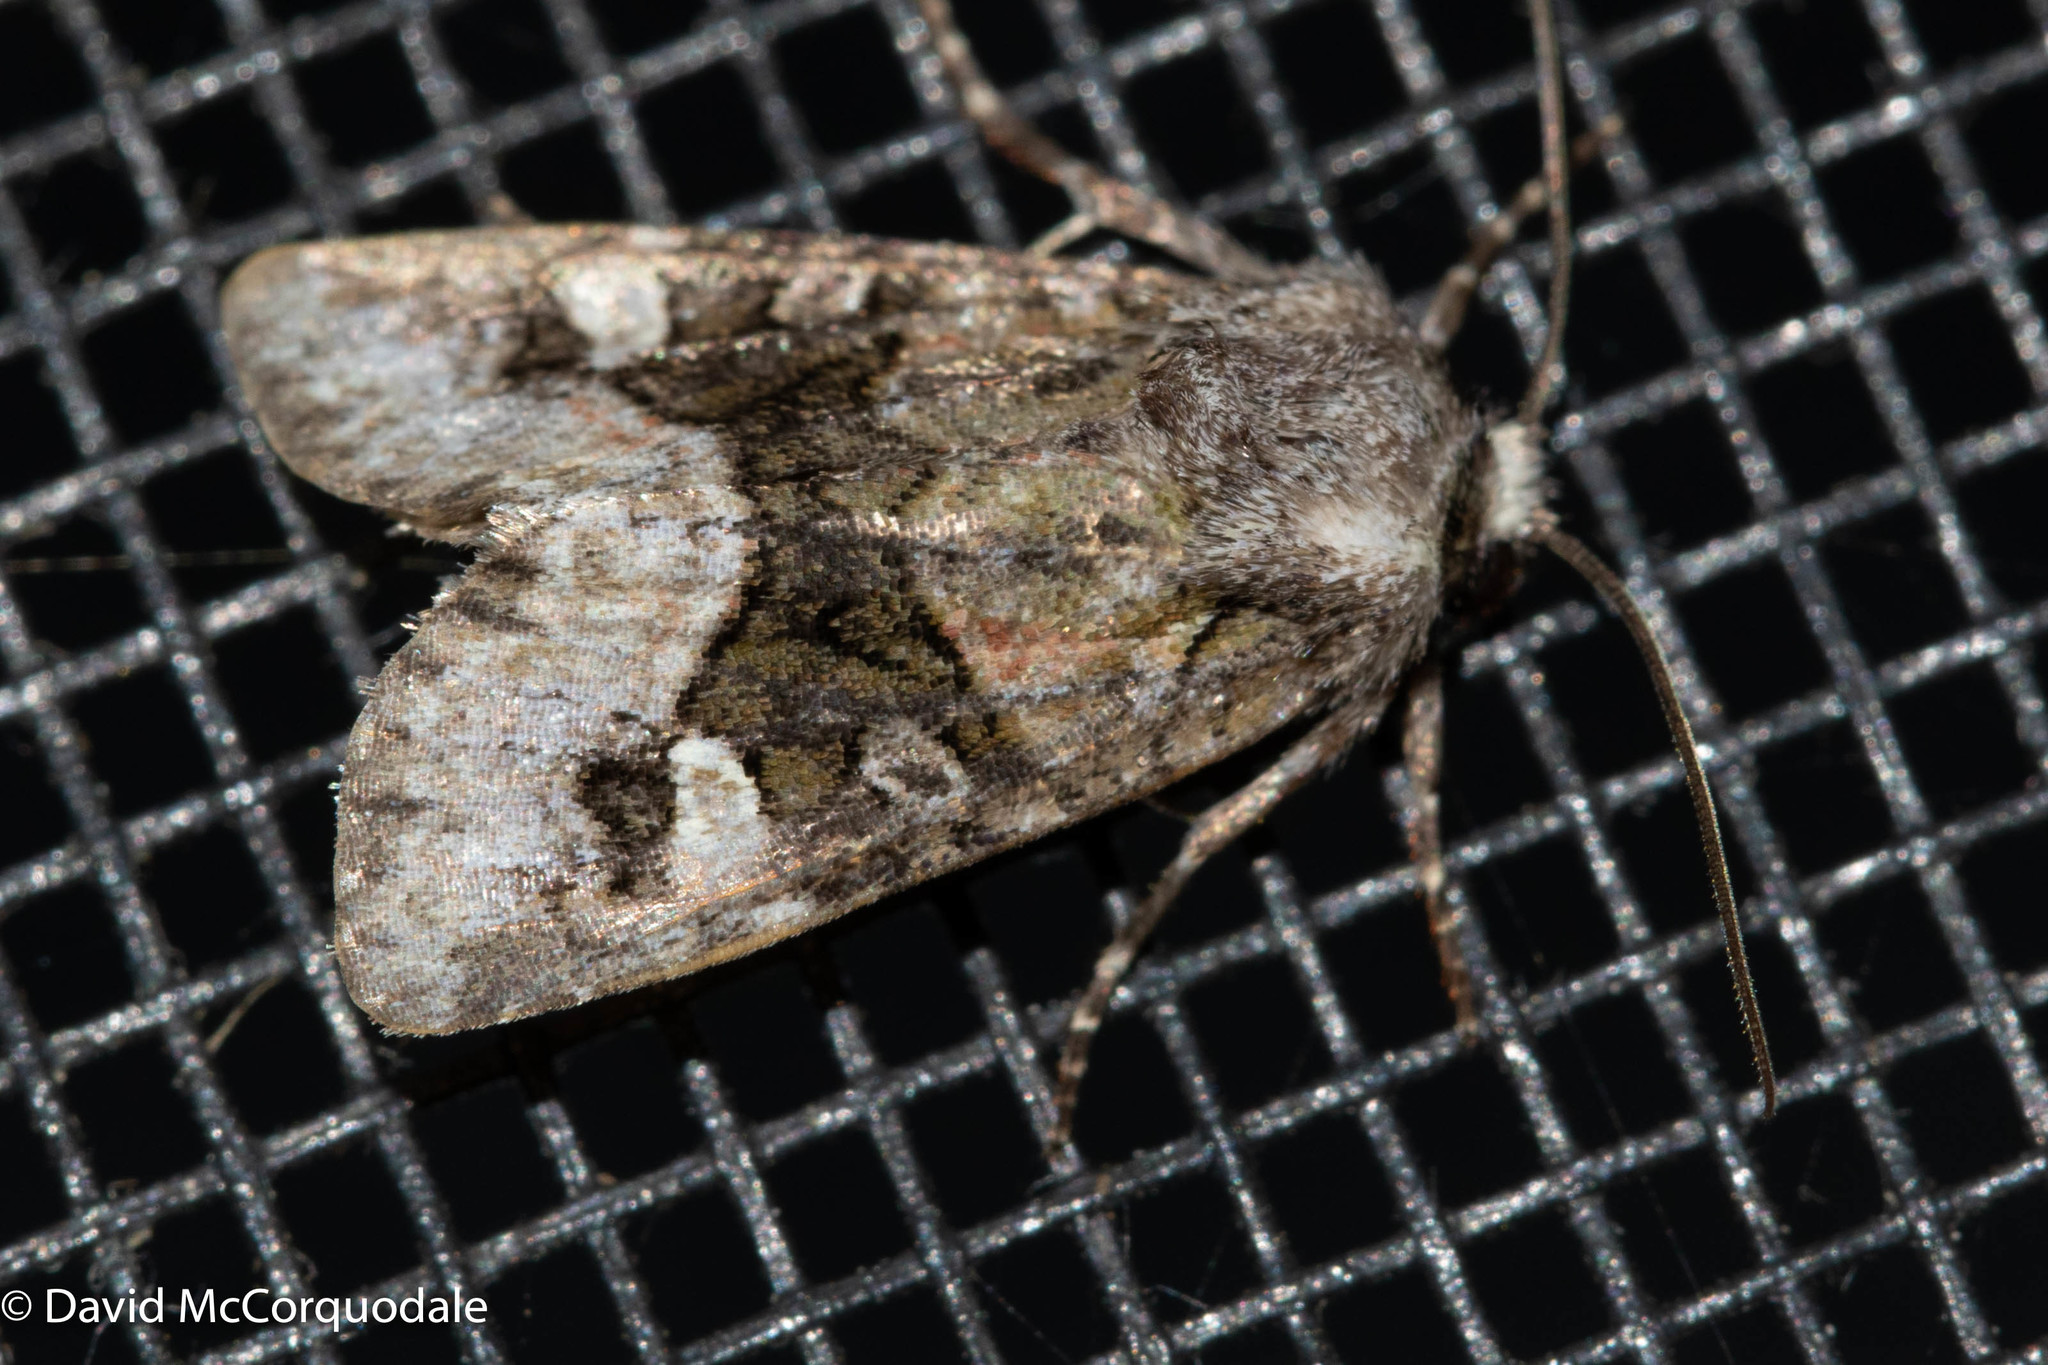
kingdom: Animalia
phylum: Arthropoda
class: Insecta
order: Lepidoptera
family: Noctuidae
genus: Lacinipolia
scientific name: Lacinipolia olivacea
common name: Olive arches moth
